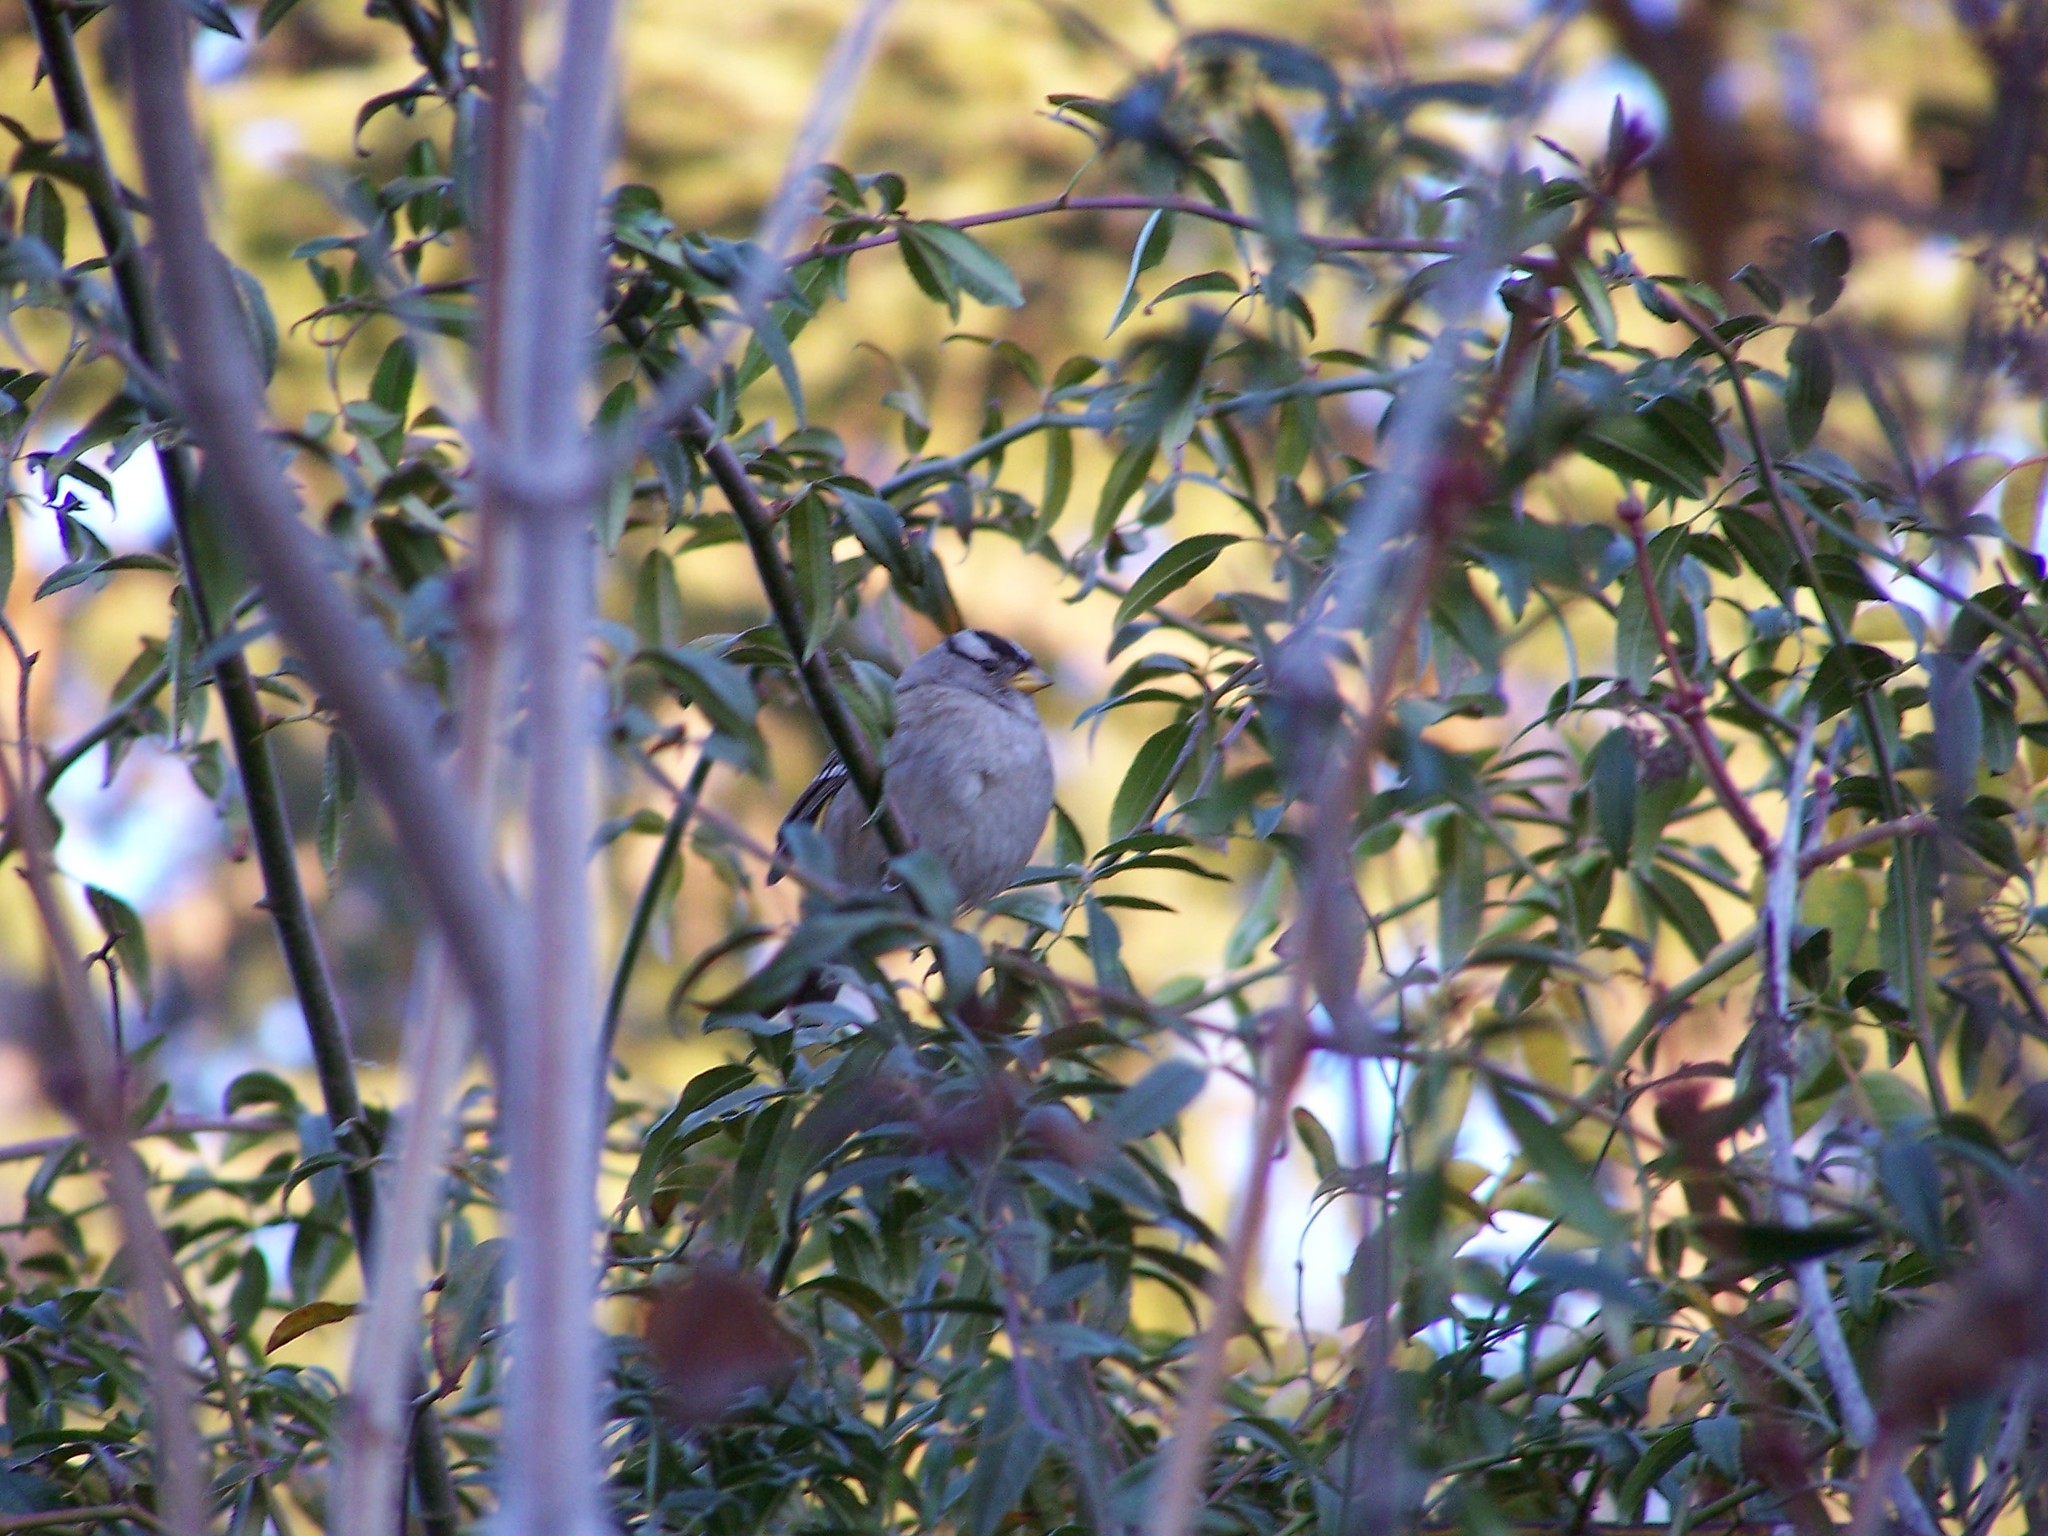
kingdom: Animalia
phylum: Chordata
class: Aves
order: Passeriformes
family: Passerellidae
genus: Zonotrichia
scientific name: Zonotrichia leucophrys
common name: White-crowned sparrow
